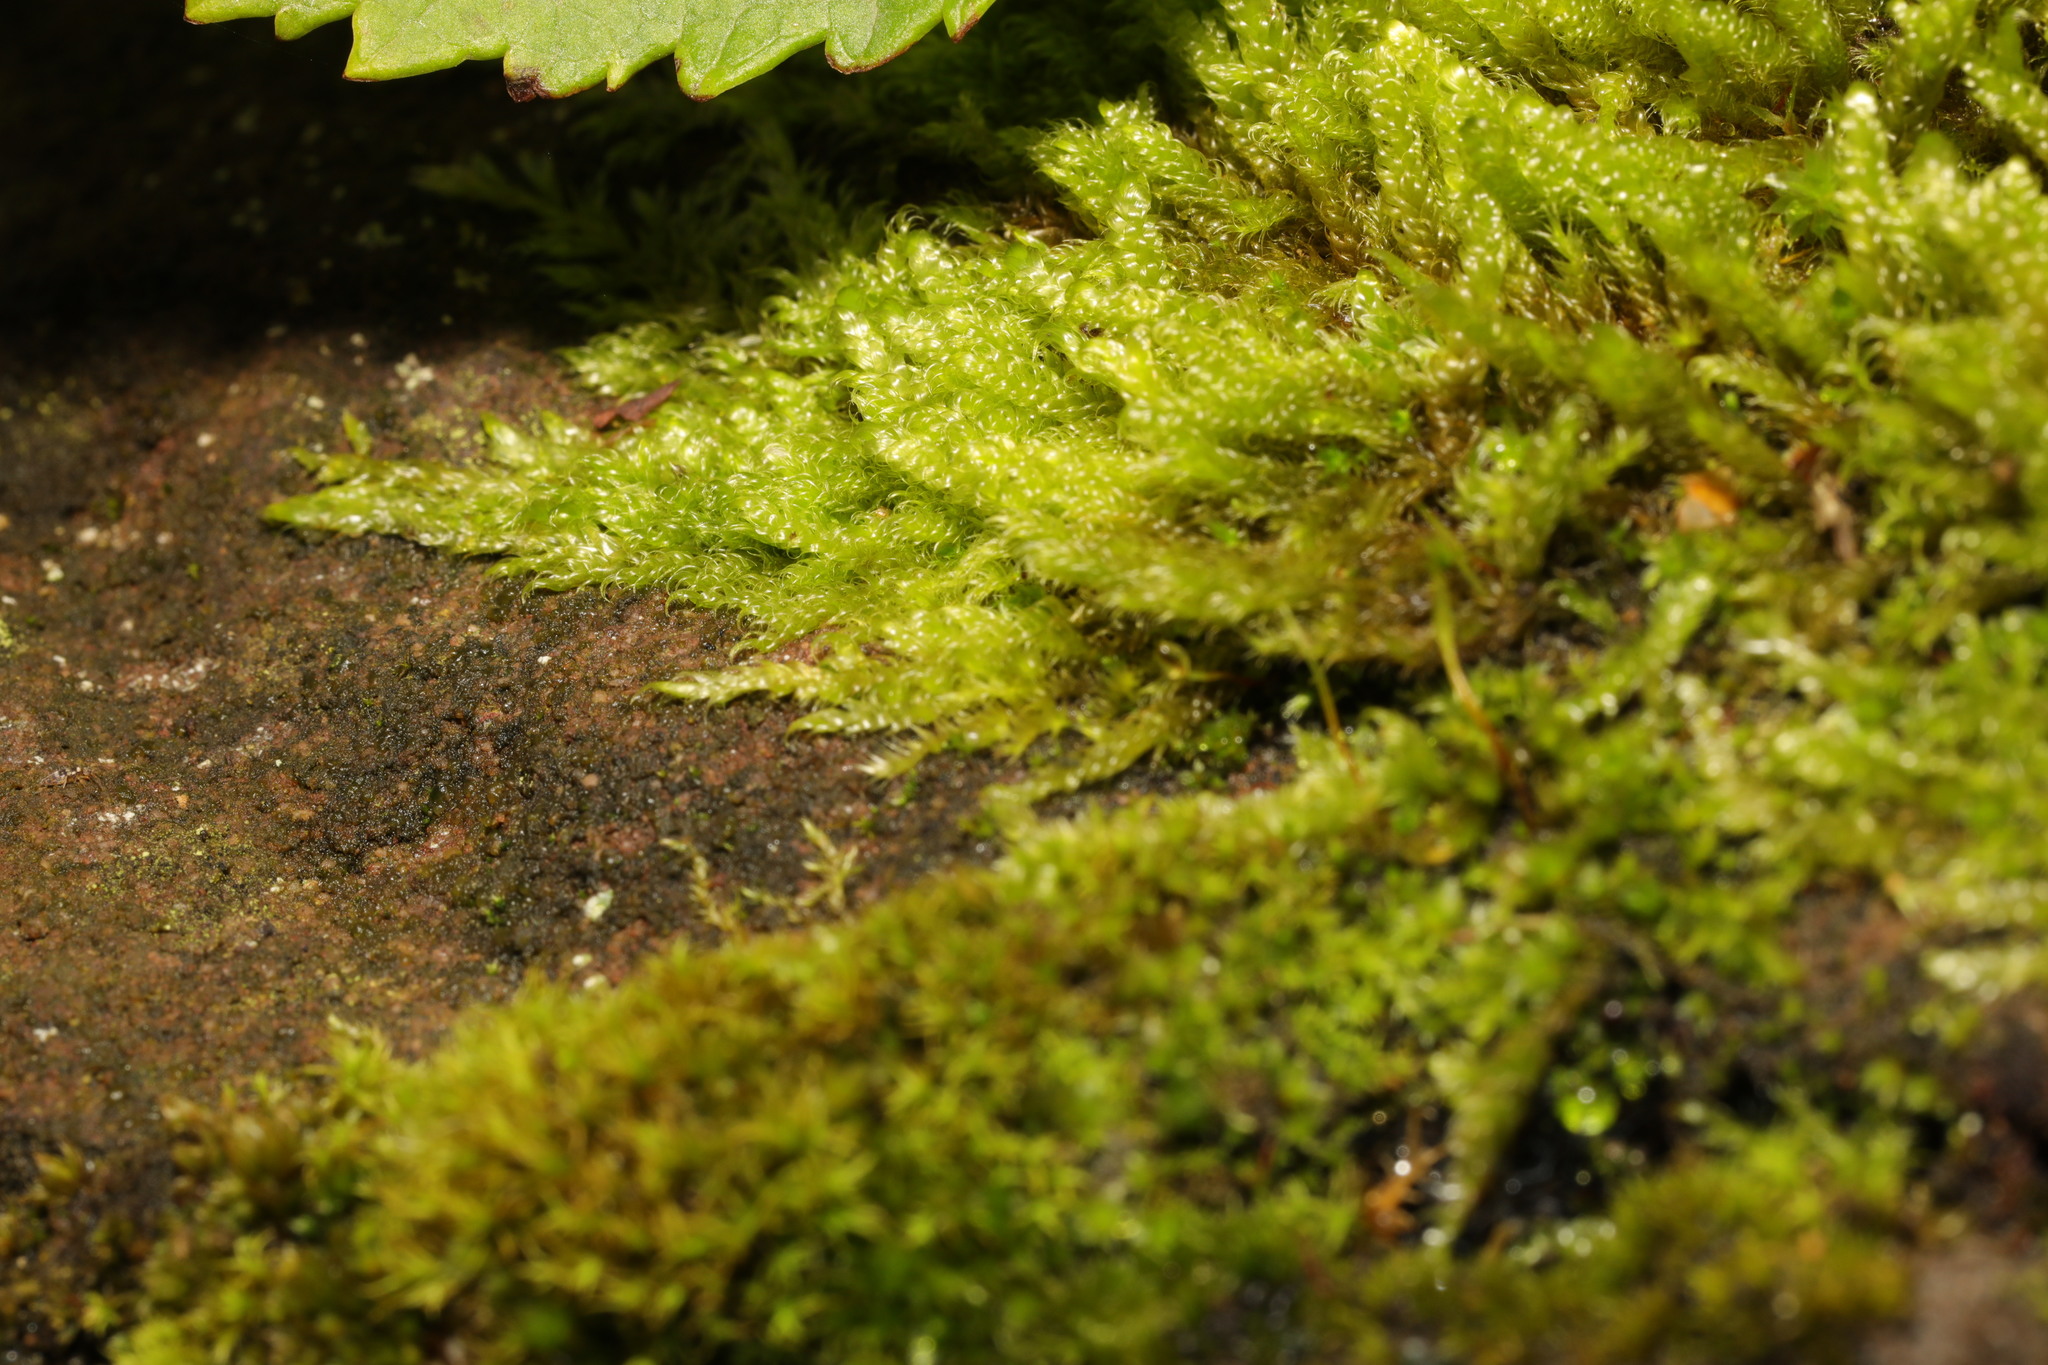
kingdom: Plantae
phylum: Bryophyta
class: Bryopsida
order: Hypnales
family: Hypnaceae
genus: Hypnum
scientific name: Hypnum cupressiforme
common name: Cypress-leaved plait-moss
